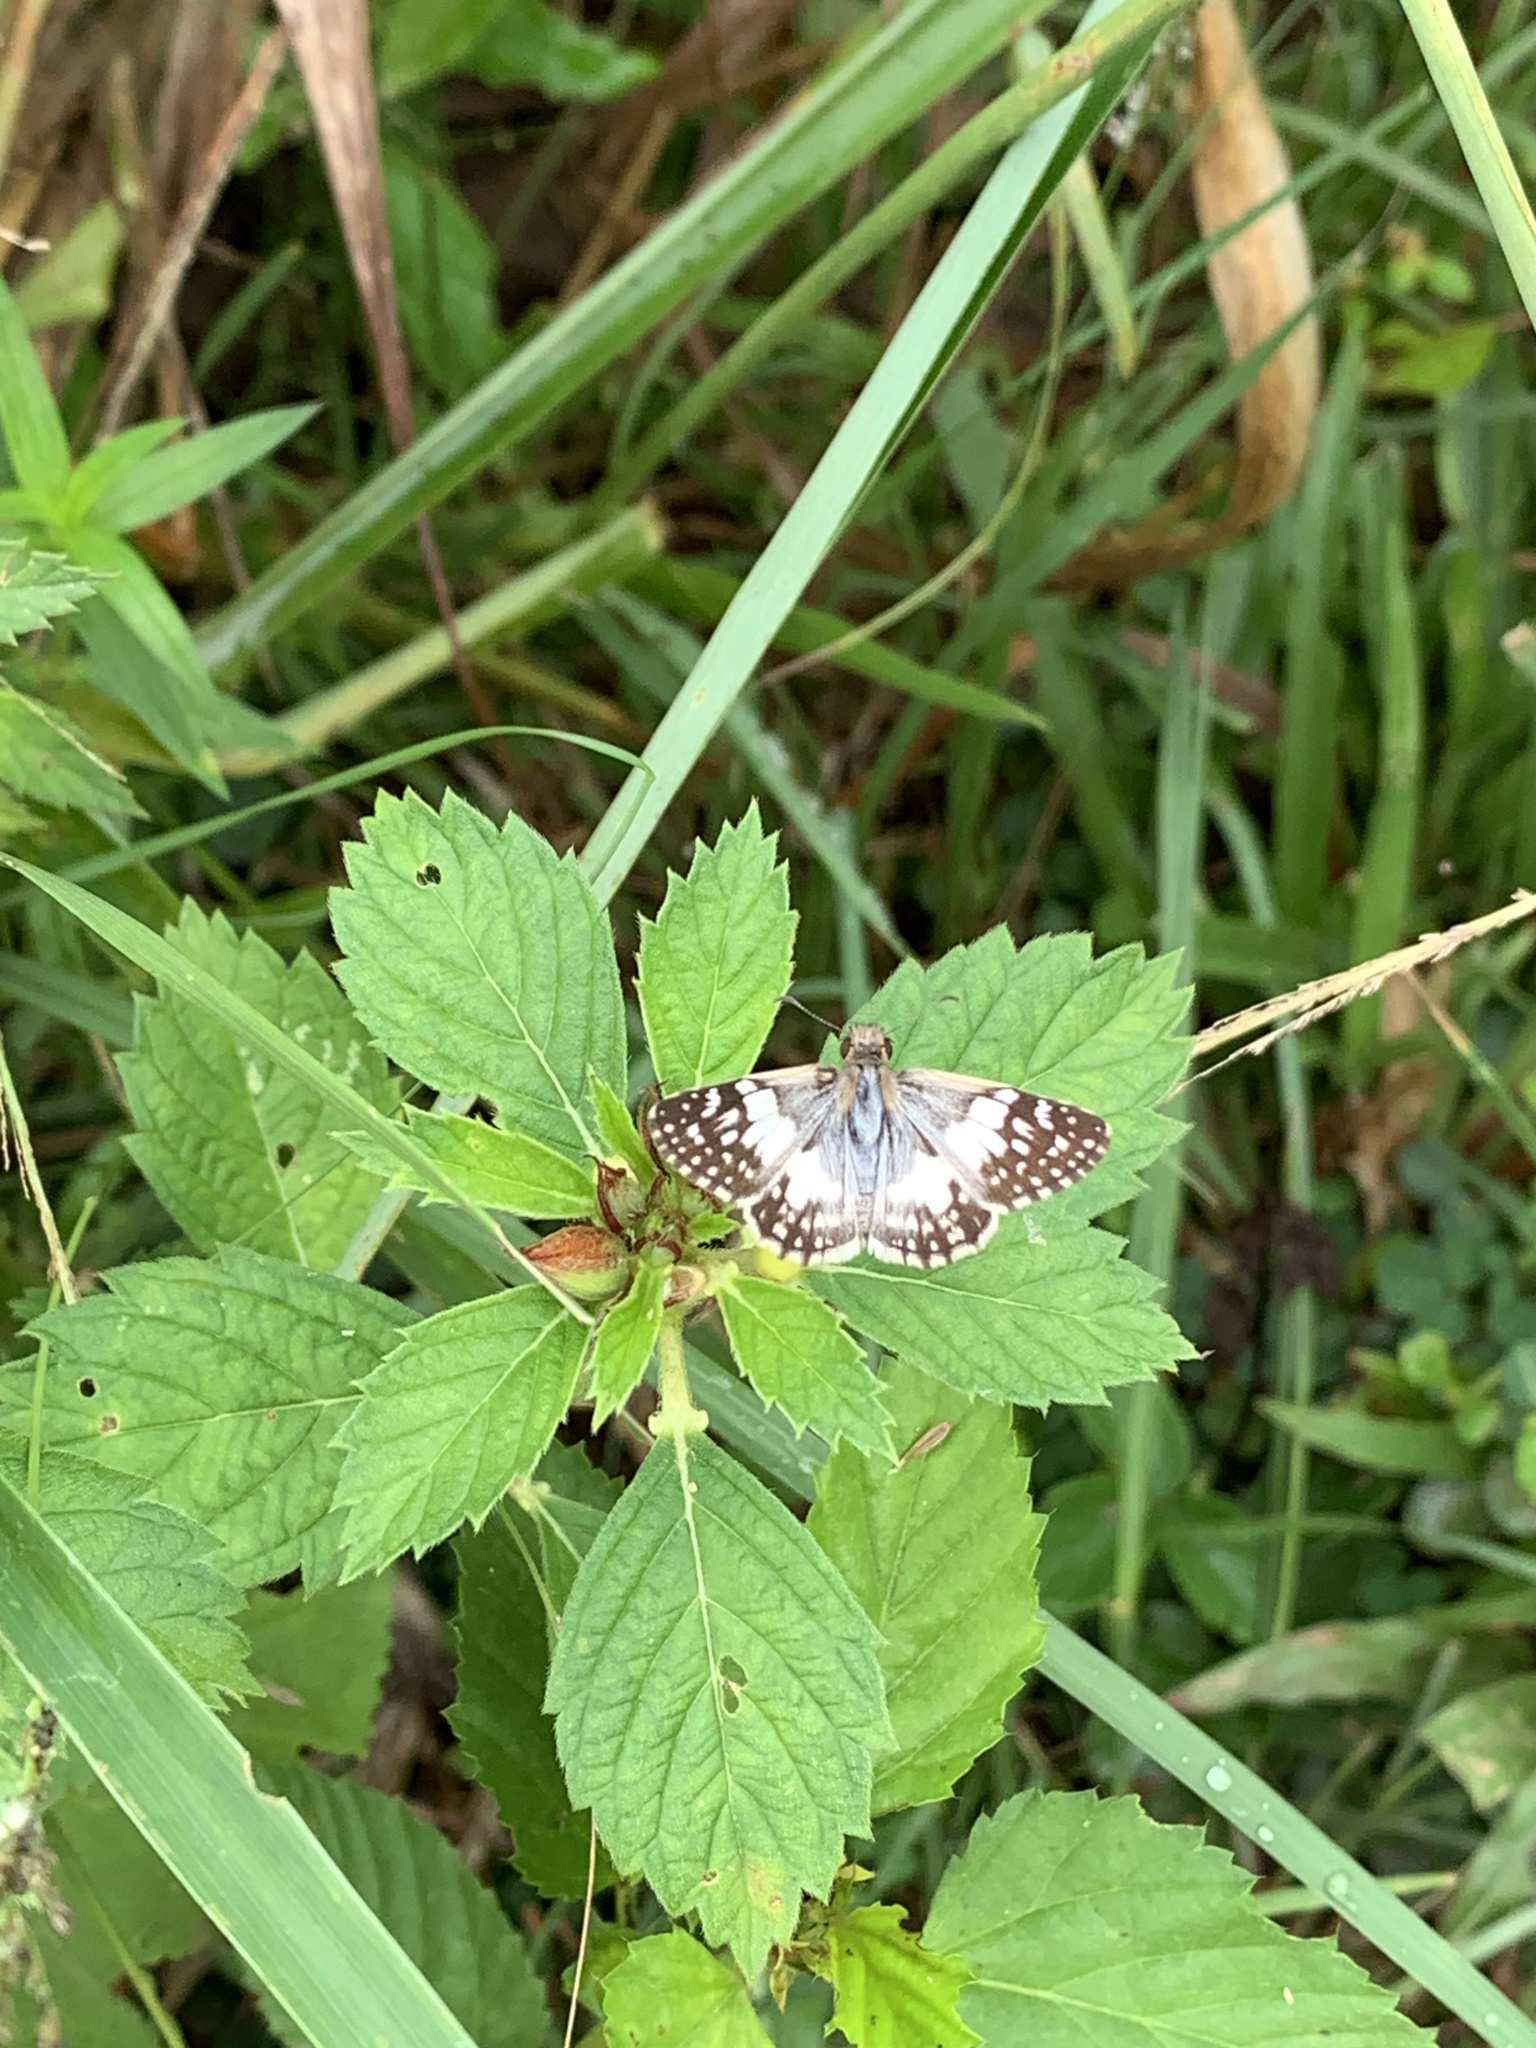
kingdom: Animalia
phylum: Arthropoda
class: Insecta
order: Lepidoptera
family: Hesperiidae
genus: Heliopetes
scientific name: Heliopetes omrina
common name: Stained white-skipper
